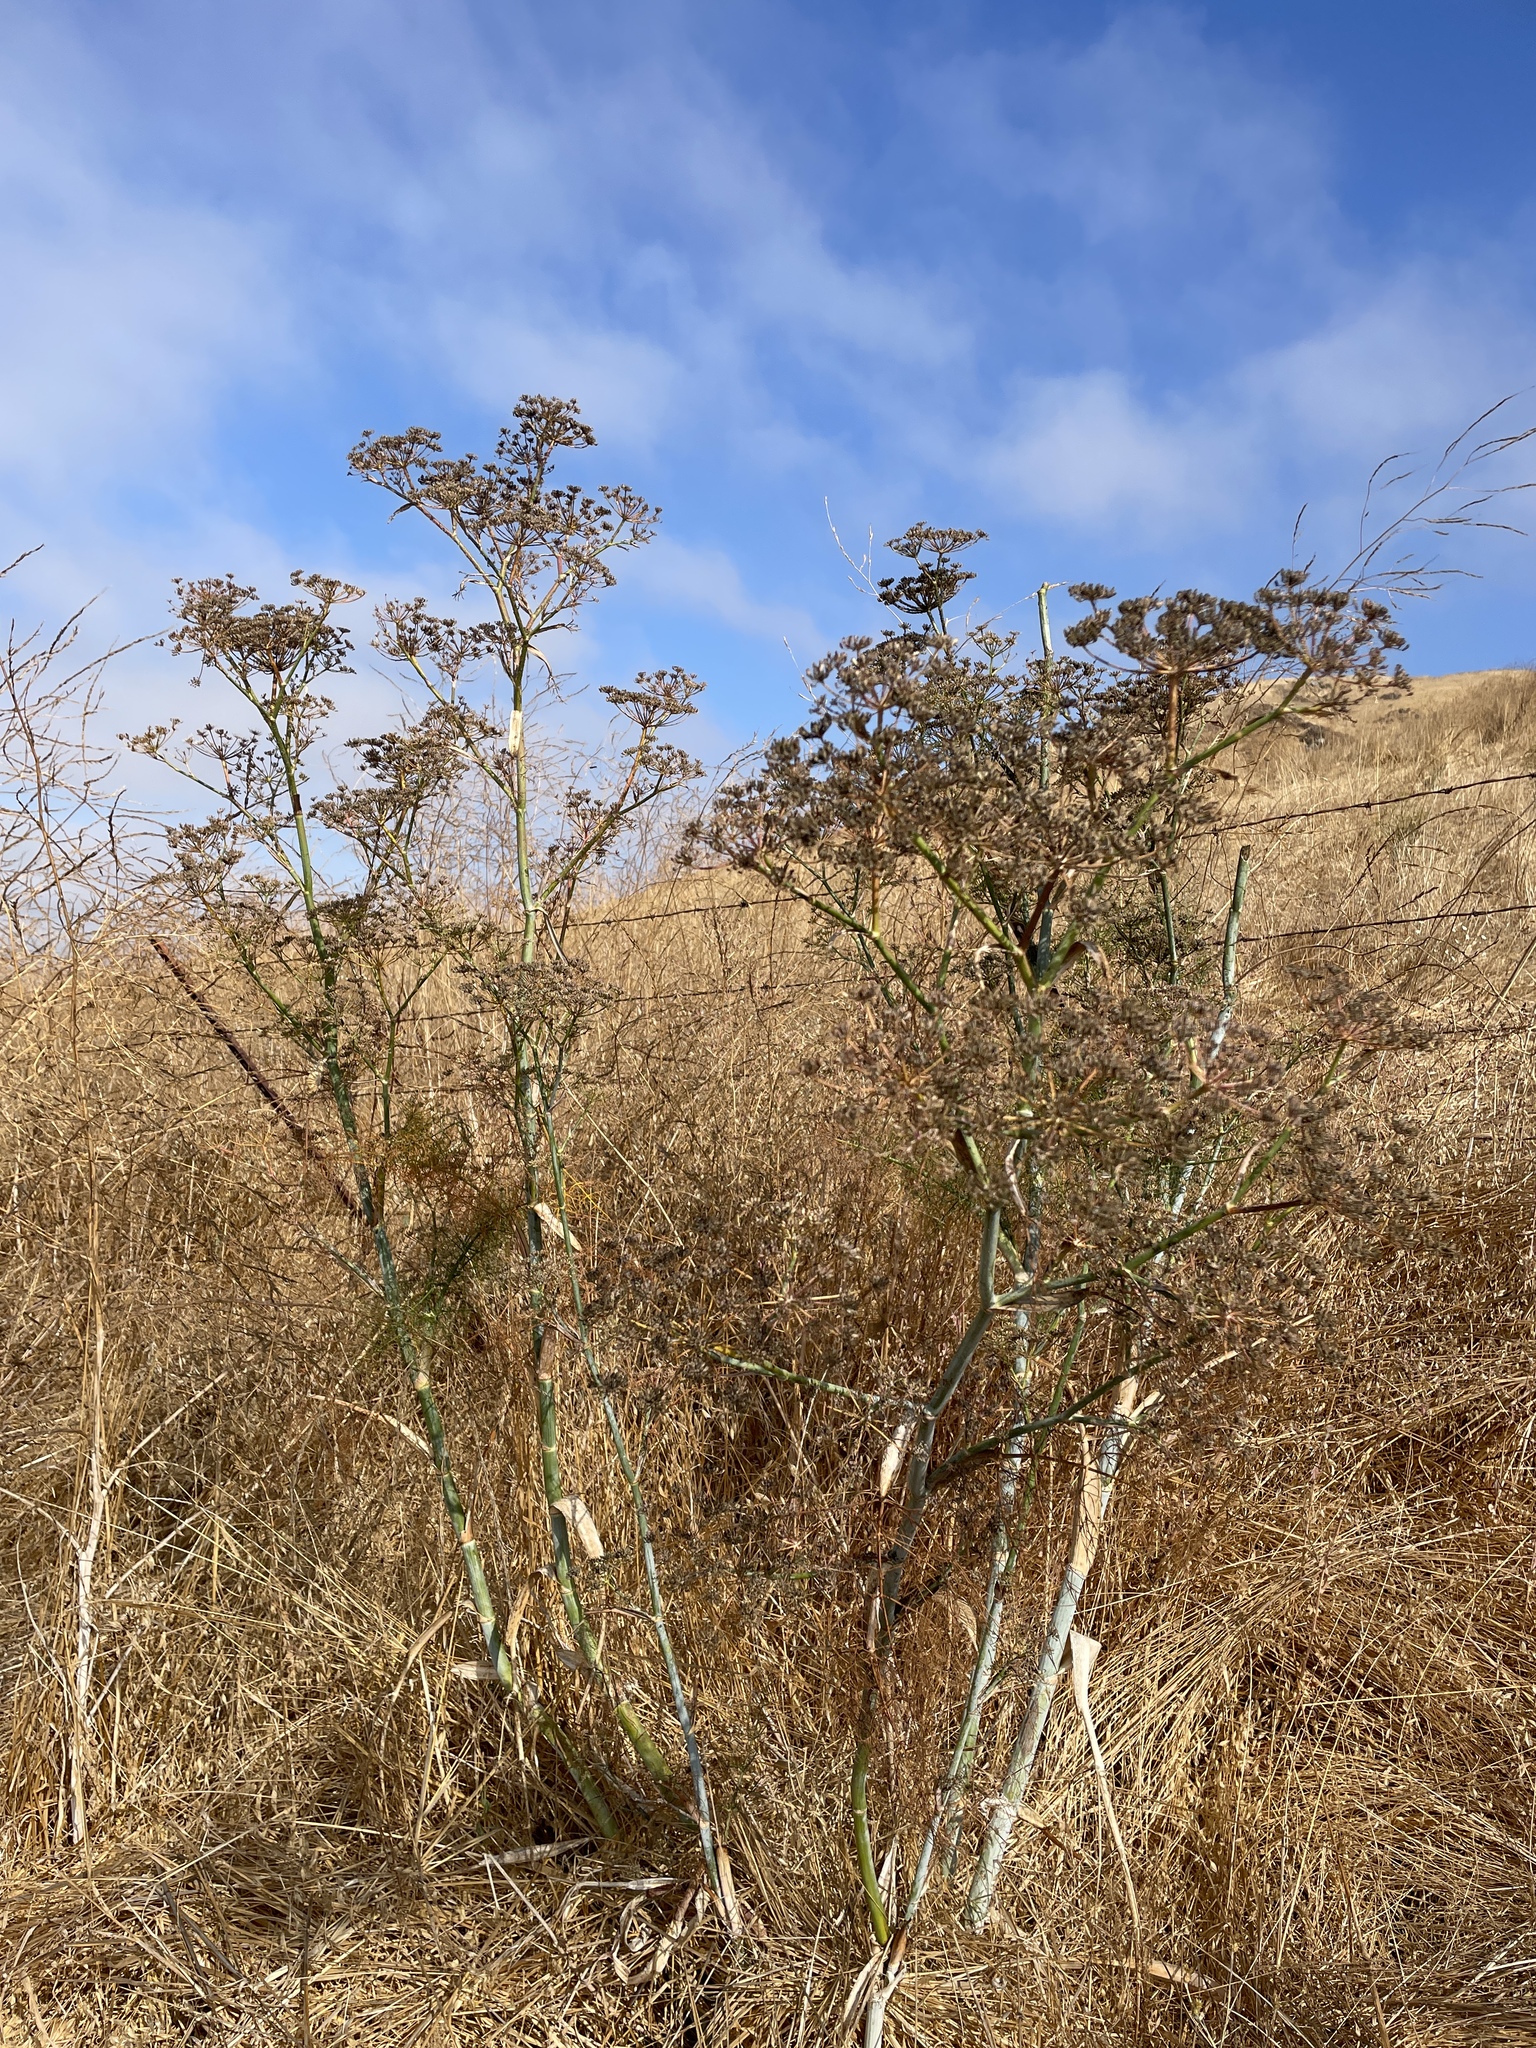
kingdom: Plantae
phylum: Tracheophyta
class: Magnoliopsida
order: Apiales
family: Apiaceae
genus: Foeniculum
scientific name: Foeniculum vulgare
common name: Fennel
